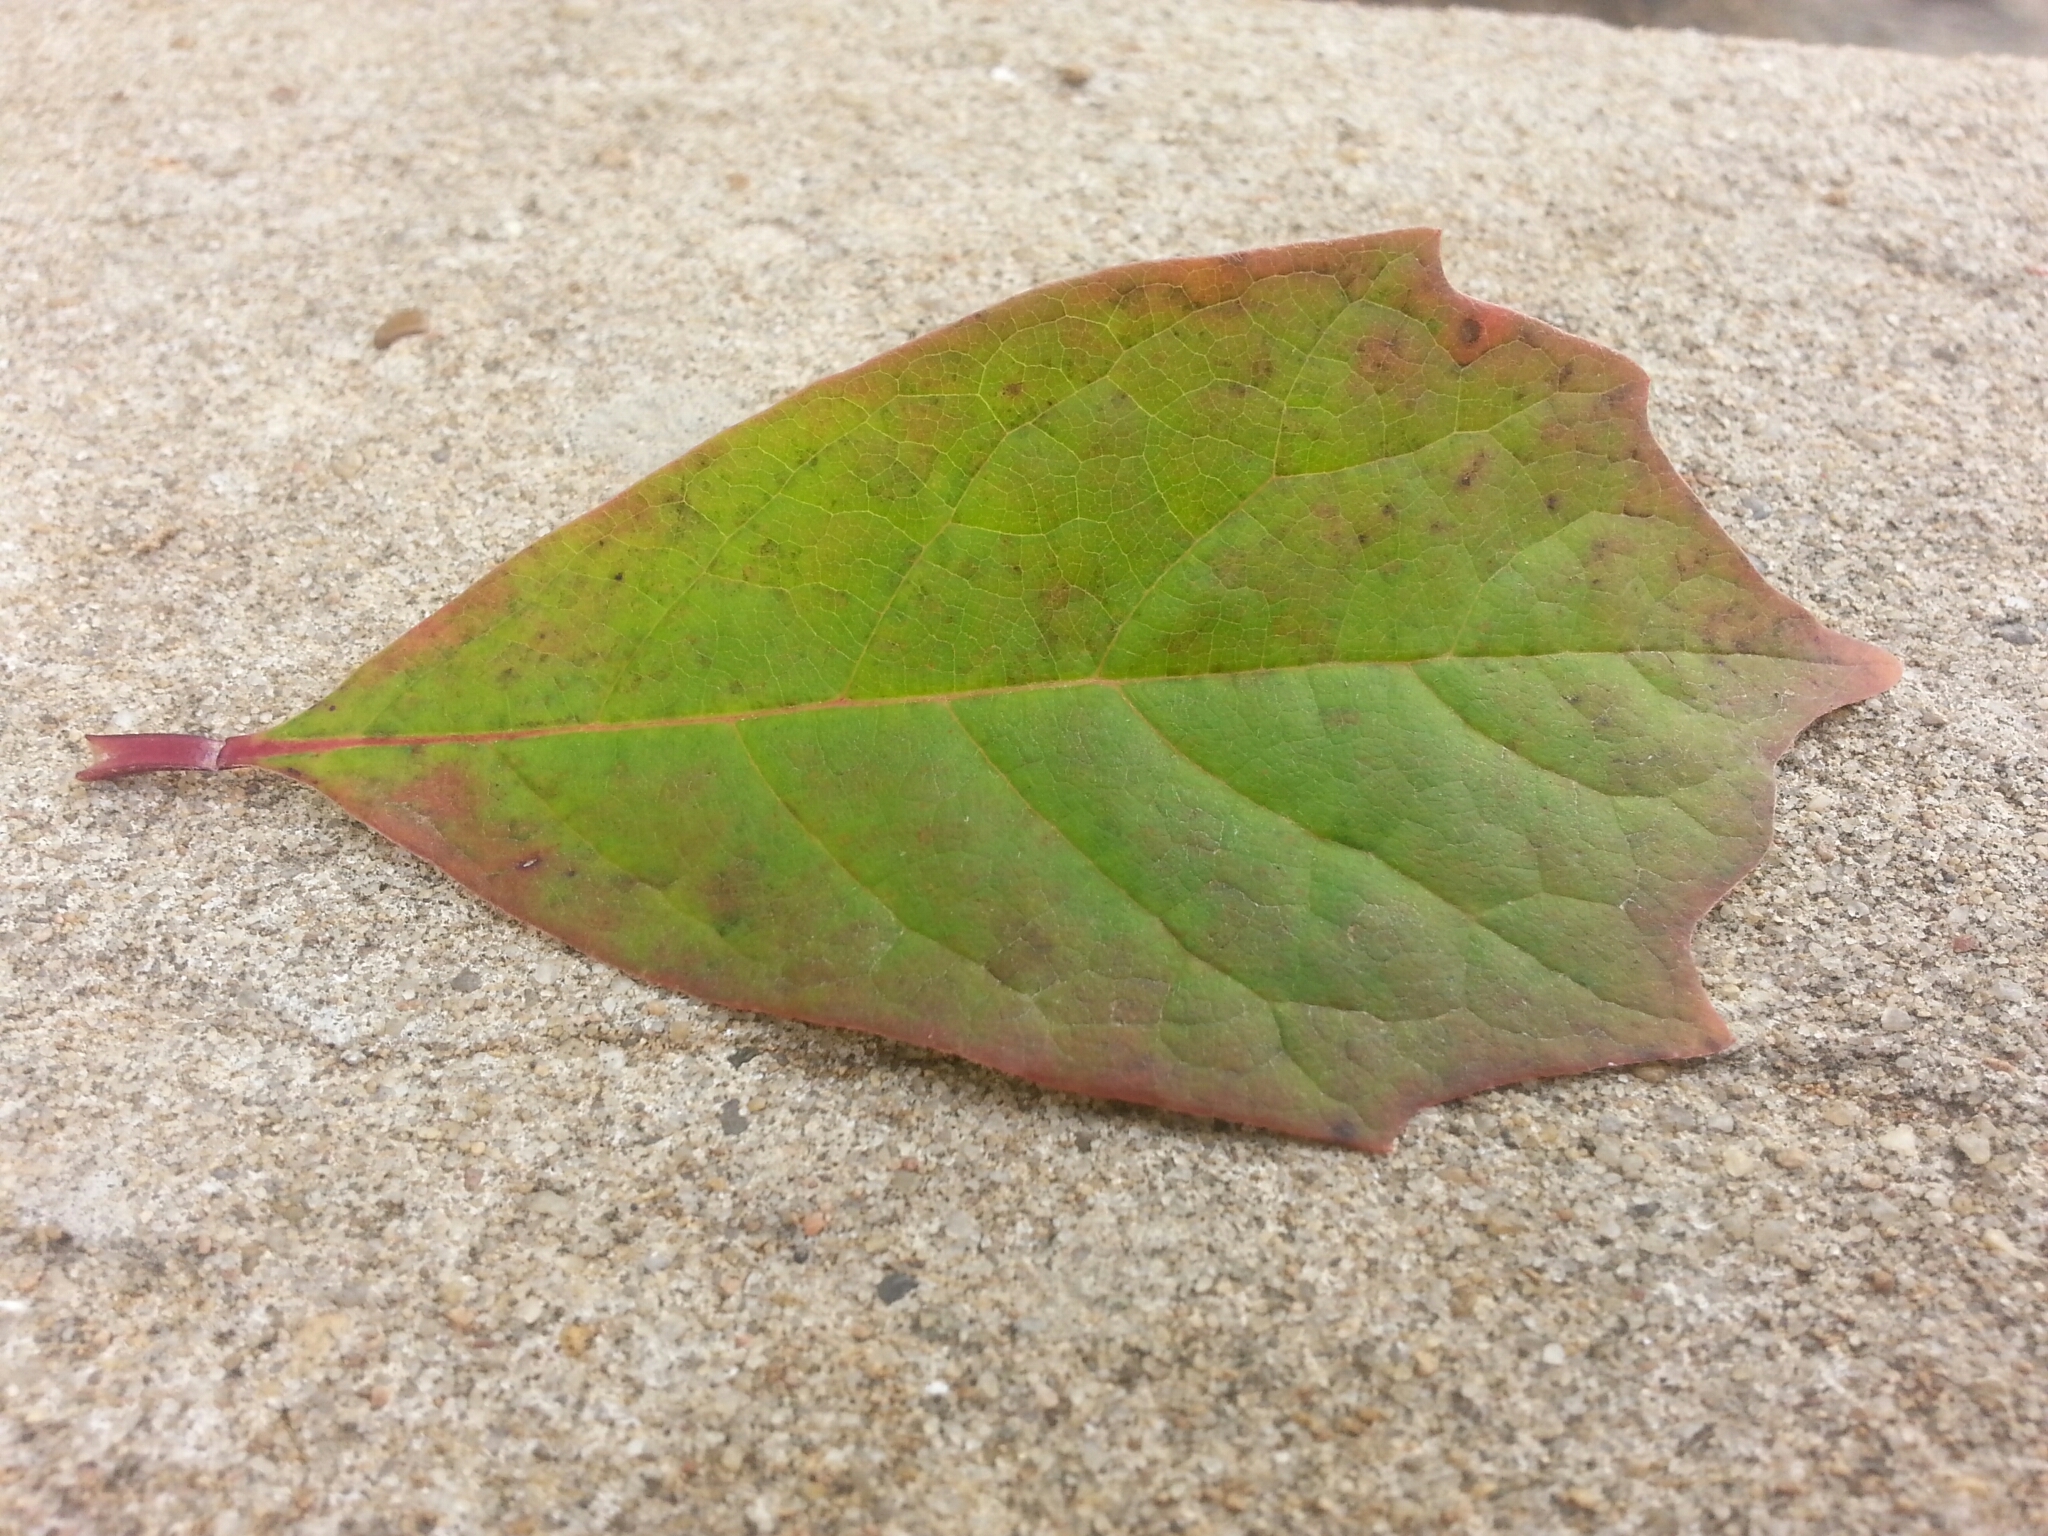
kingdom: Plantae
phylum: Tracheophyta
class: Magnoliopsida
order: Cornales
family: Nyssaceae
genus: Nyssa
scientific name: Nyssa sylvatica
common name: Black tupelo
